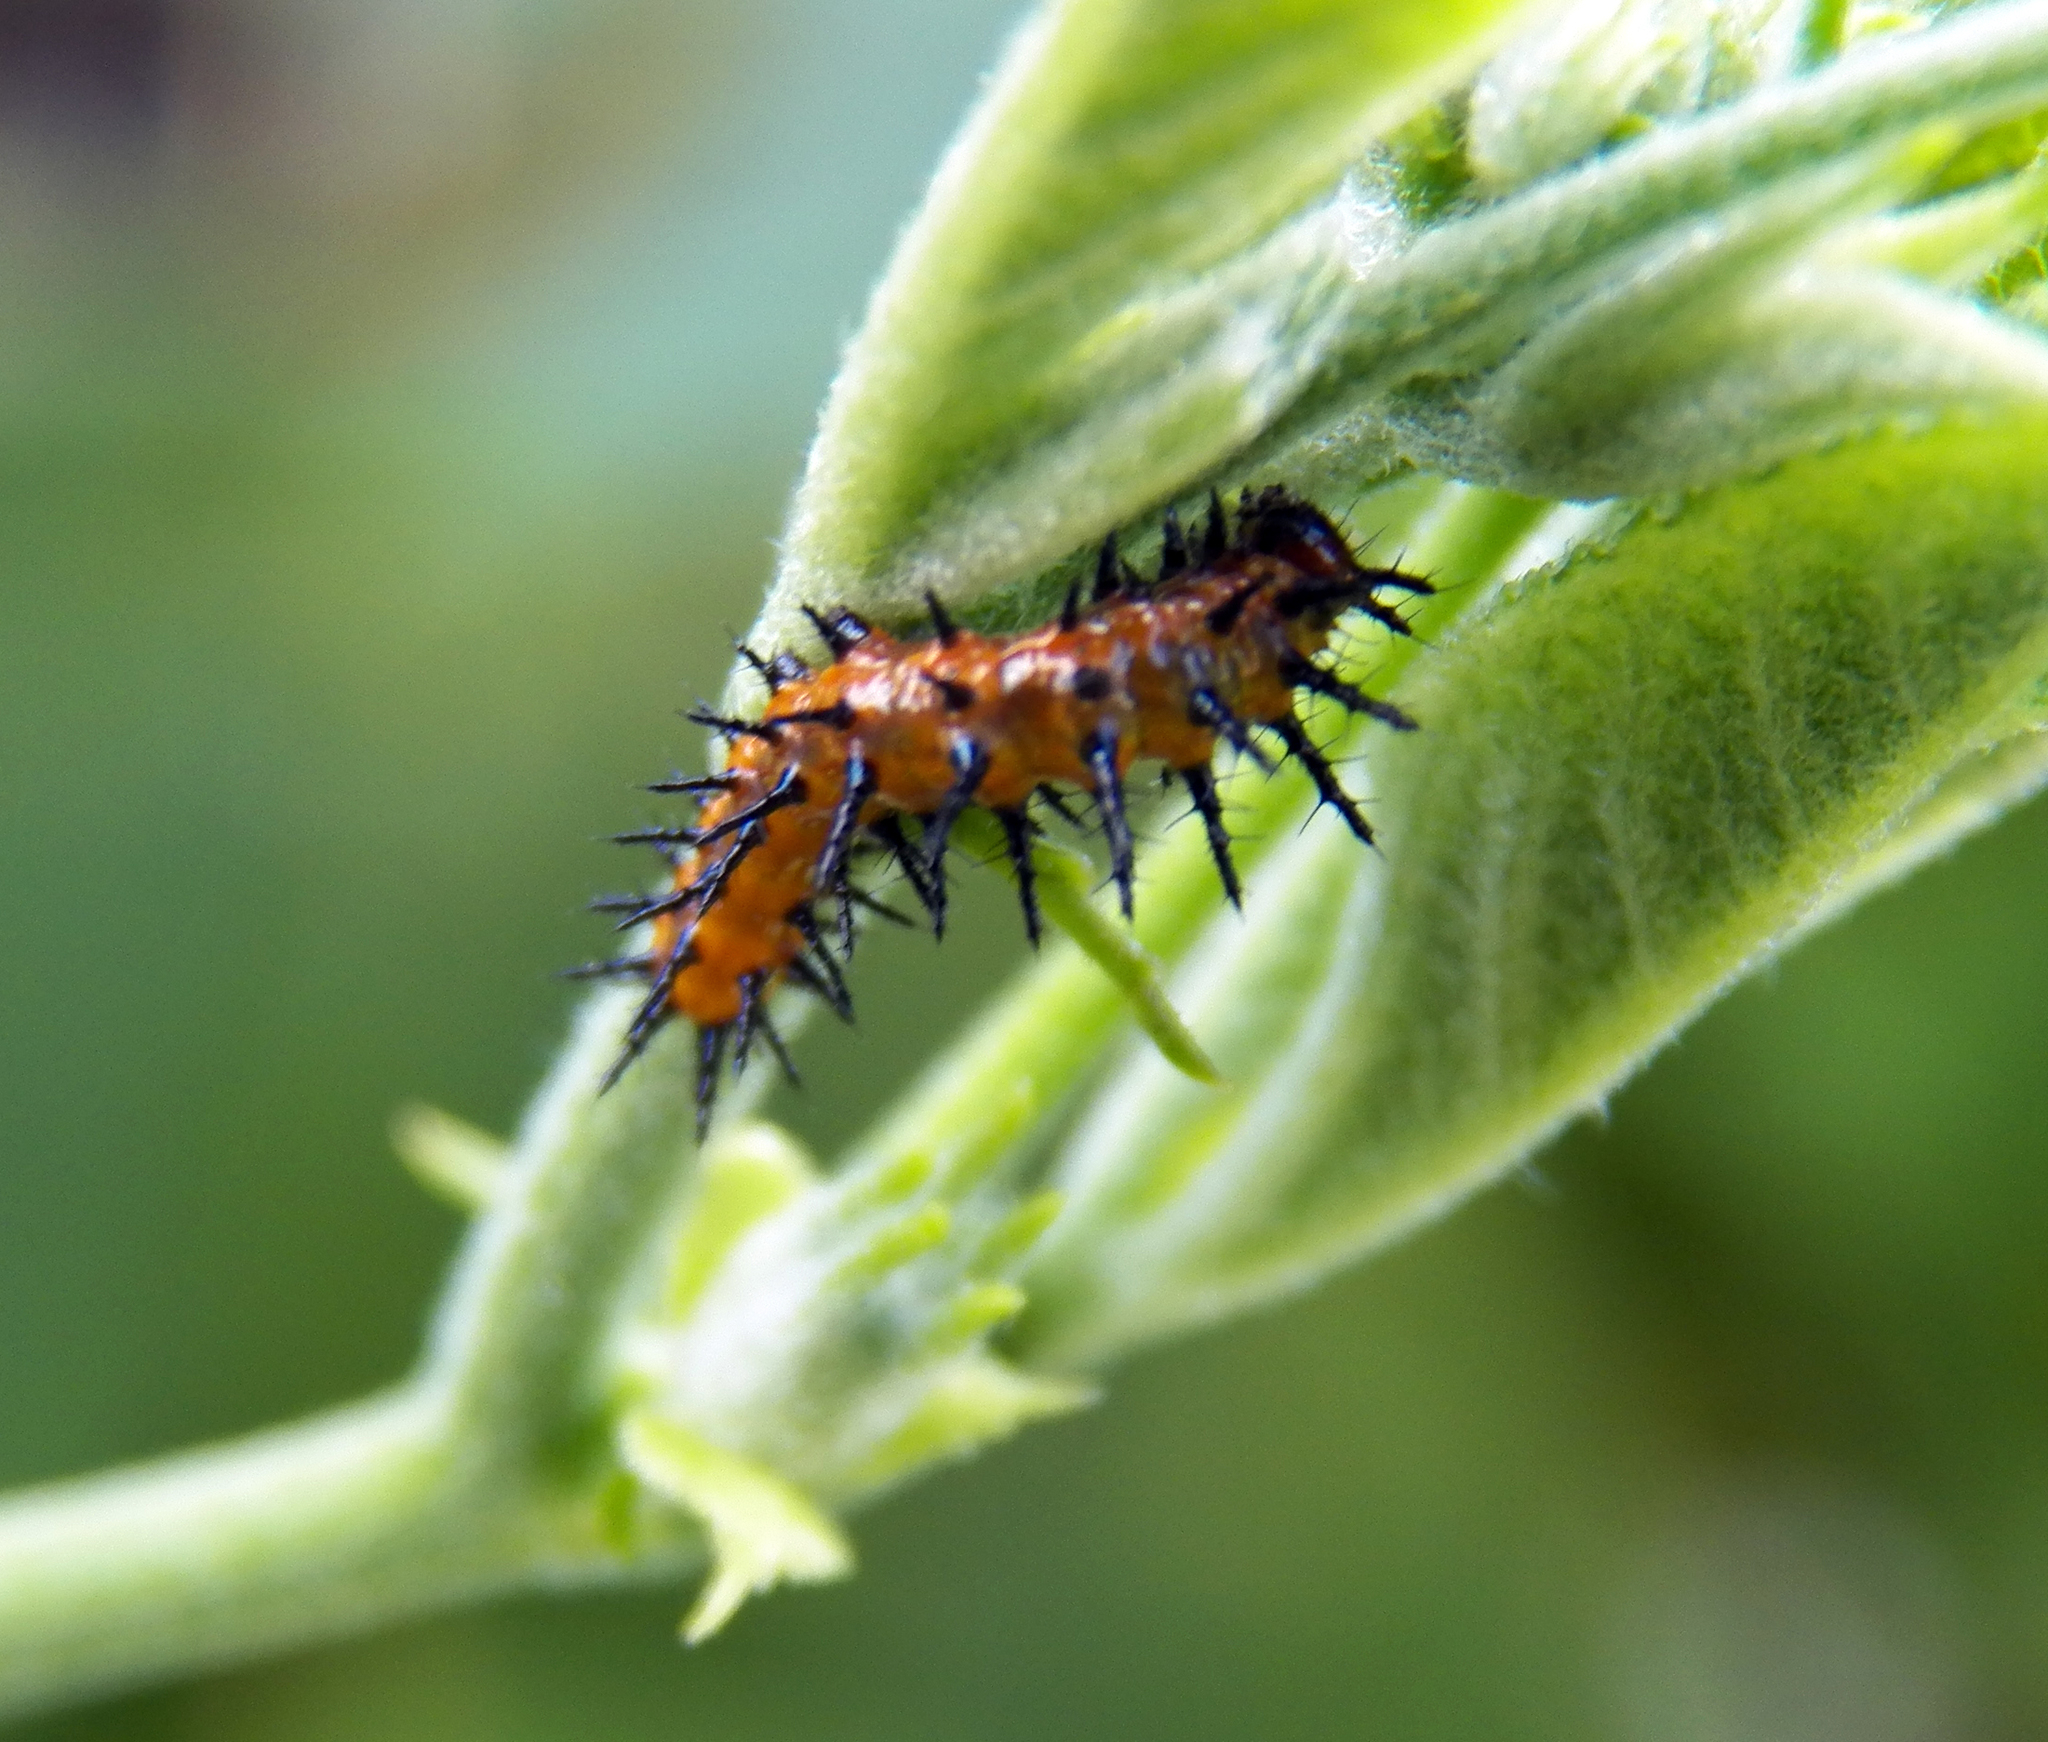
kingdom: Animalia
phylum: Arthropoda
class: Insecta
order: Lepidoptera
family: Nymphalidae
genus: Dione
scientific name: Dione vanillae
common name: Gulf fritillary
